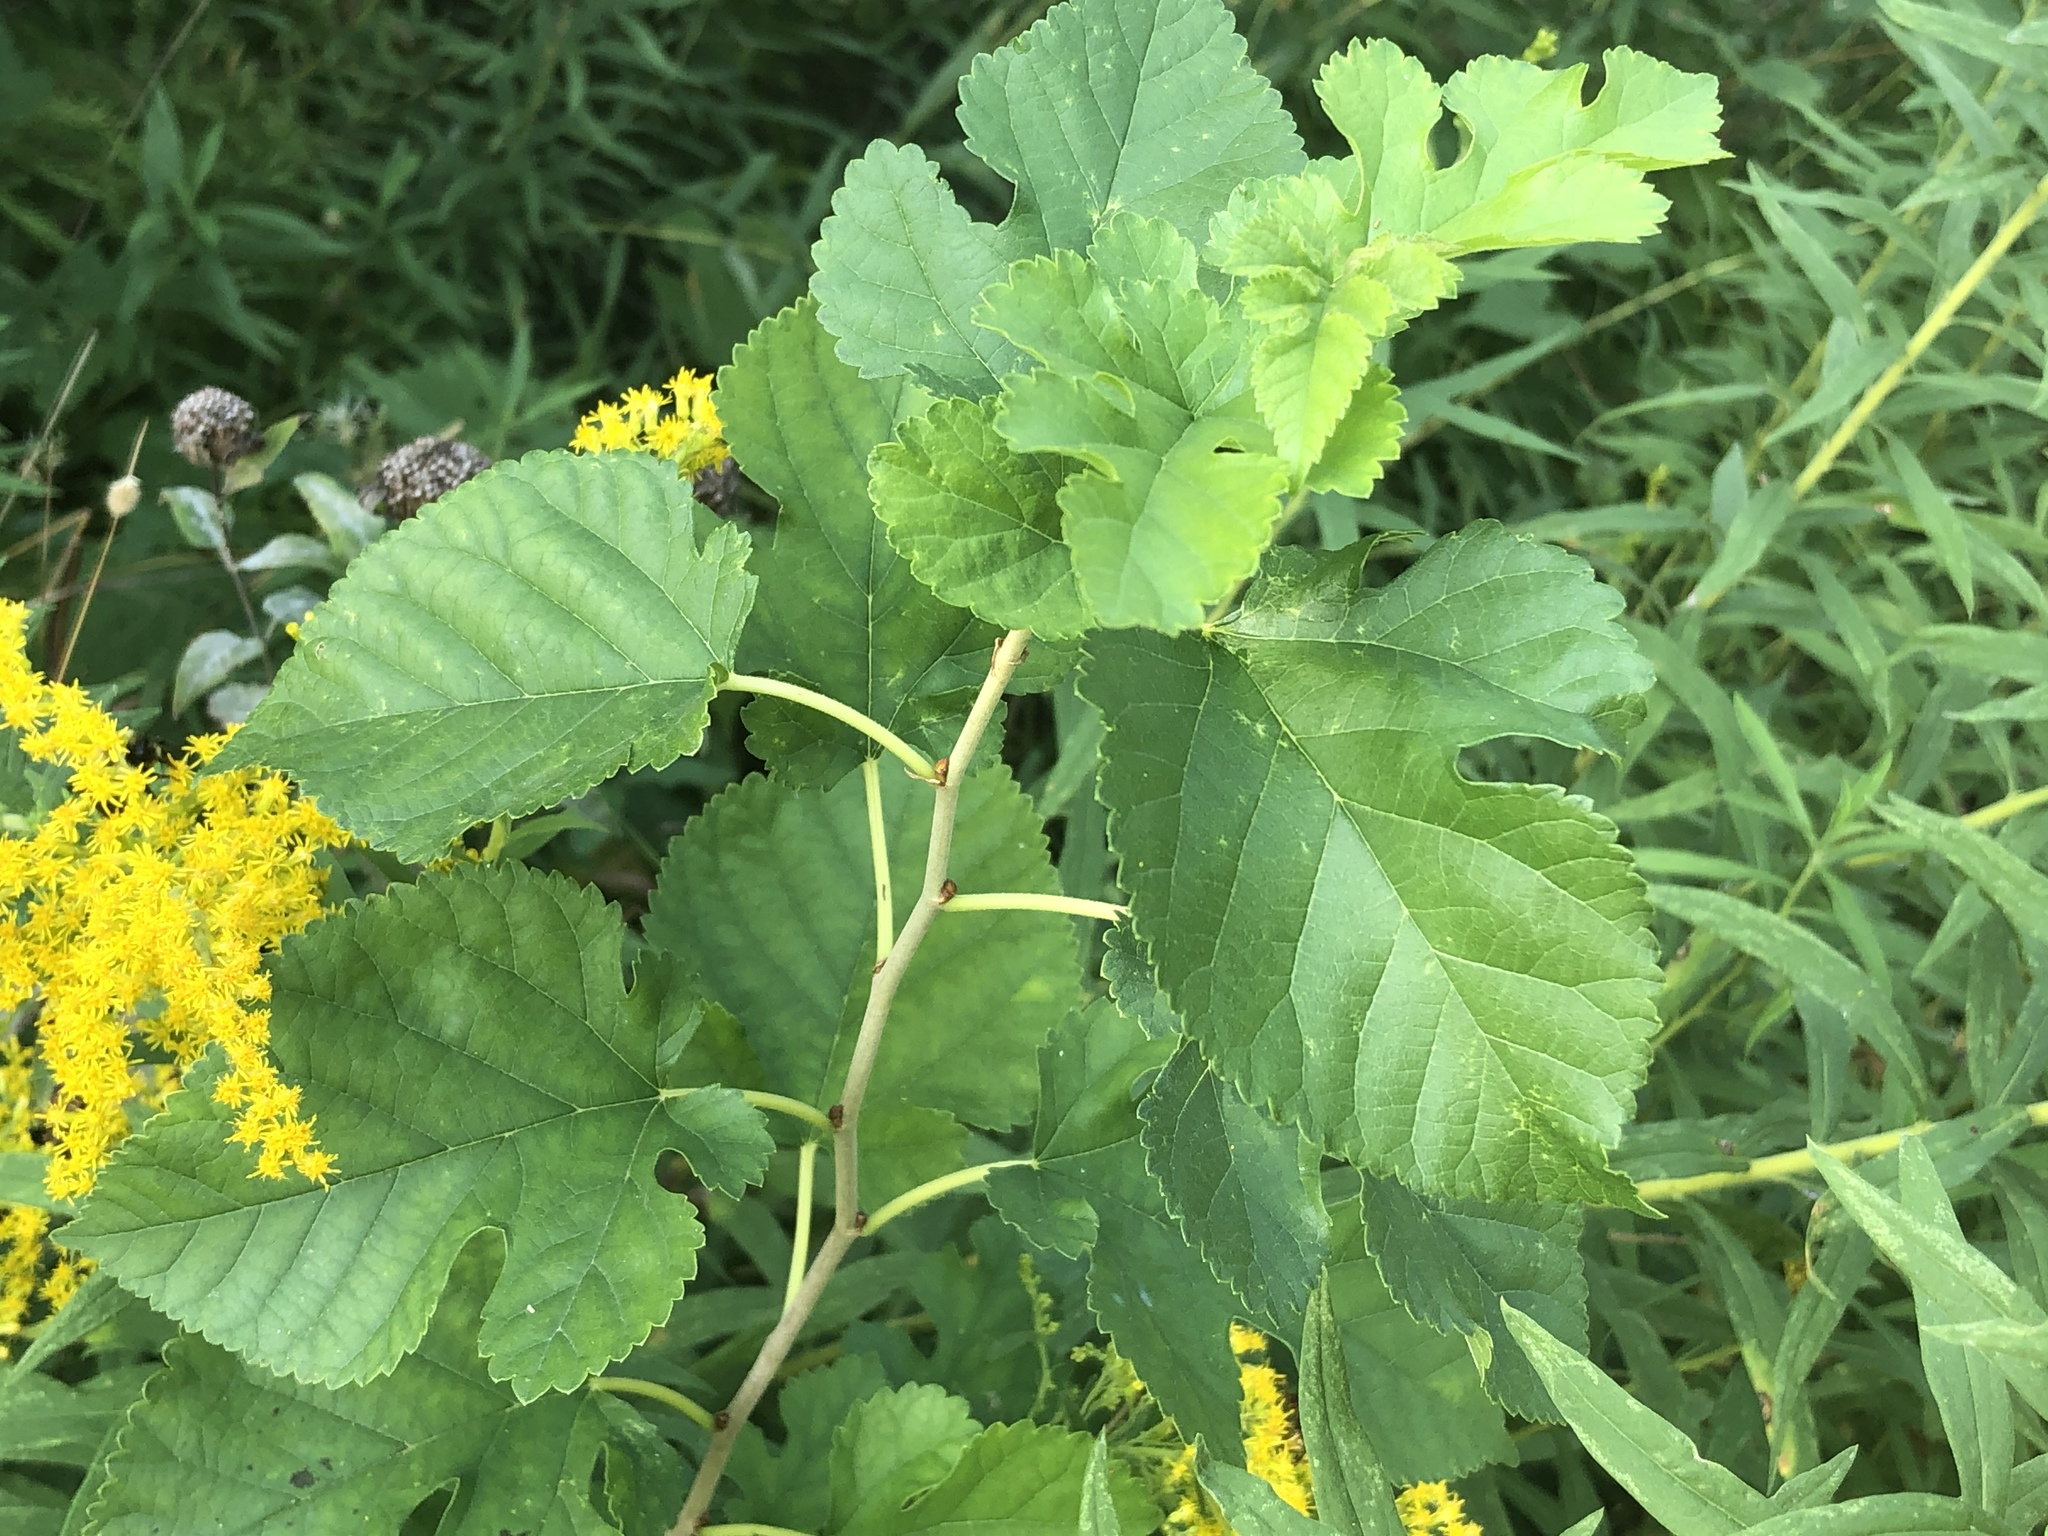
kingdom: Plantae
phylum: Tracheophyta
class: Magnoliopsida
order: Rosales
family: Moraceae
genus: Morus
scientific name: Morus alba
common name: White mulberry
